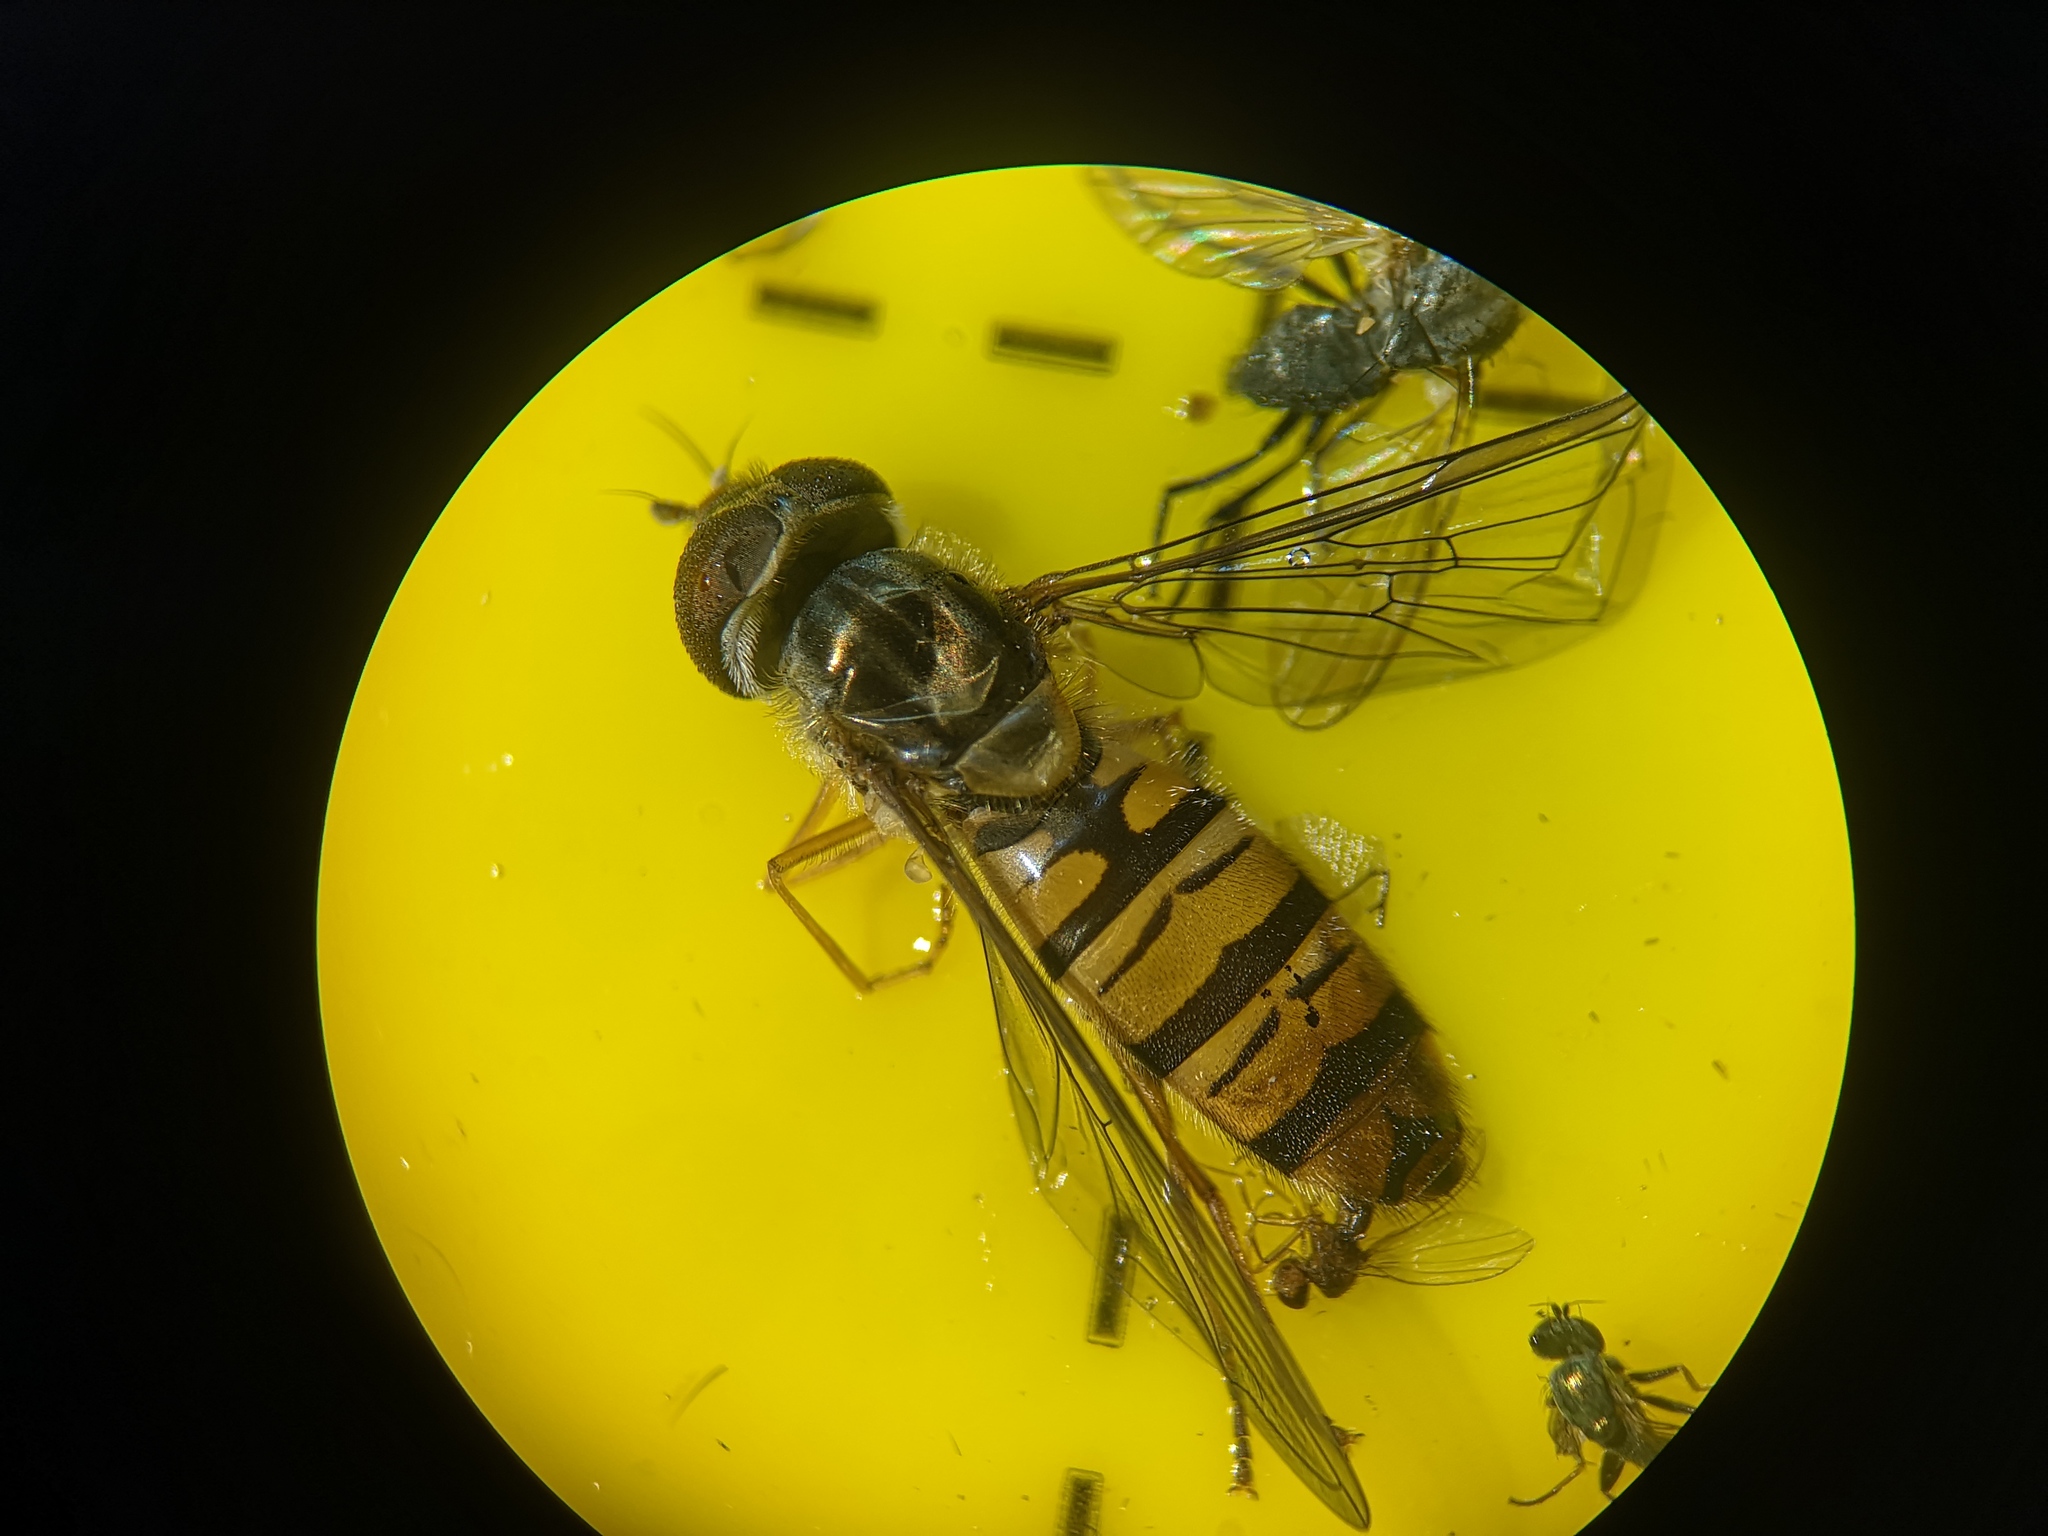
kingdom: Animalia
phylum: Arthropoda
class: Insecta
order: Diptera
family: Syrphidae
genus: Episyrphus
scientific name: Episyrphus balteatus
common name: Marmalade hoverfly
